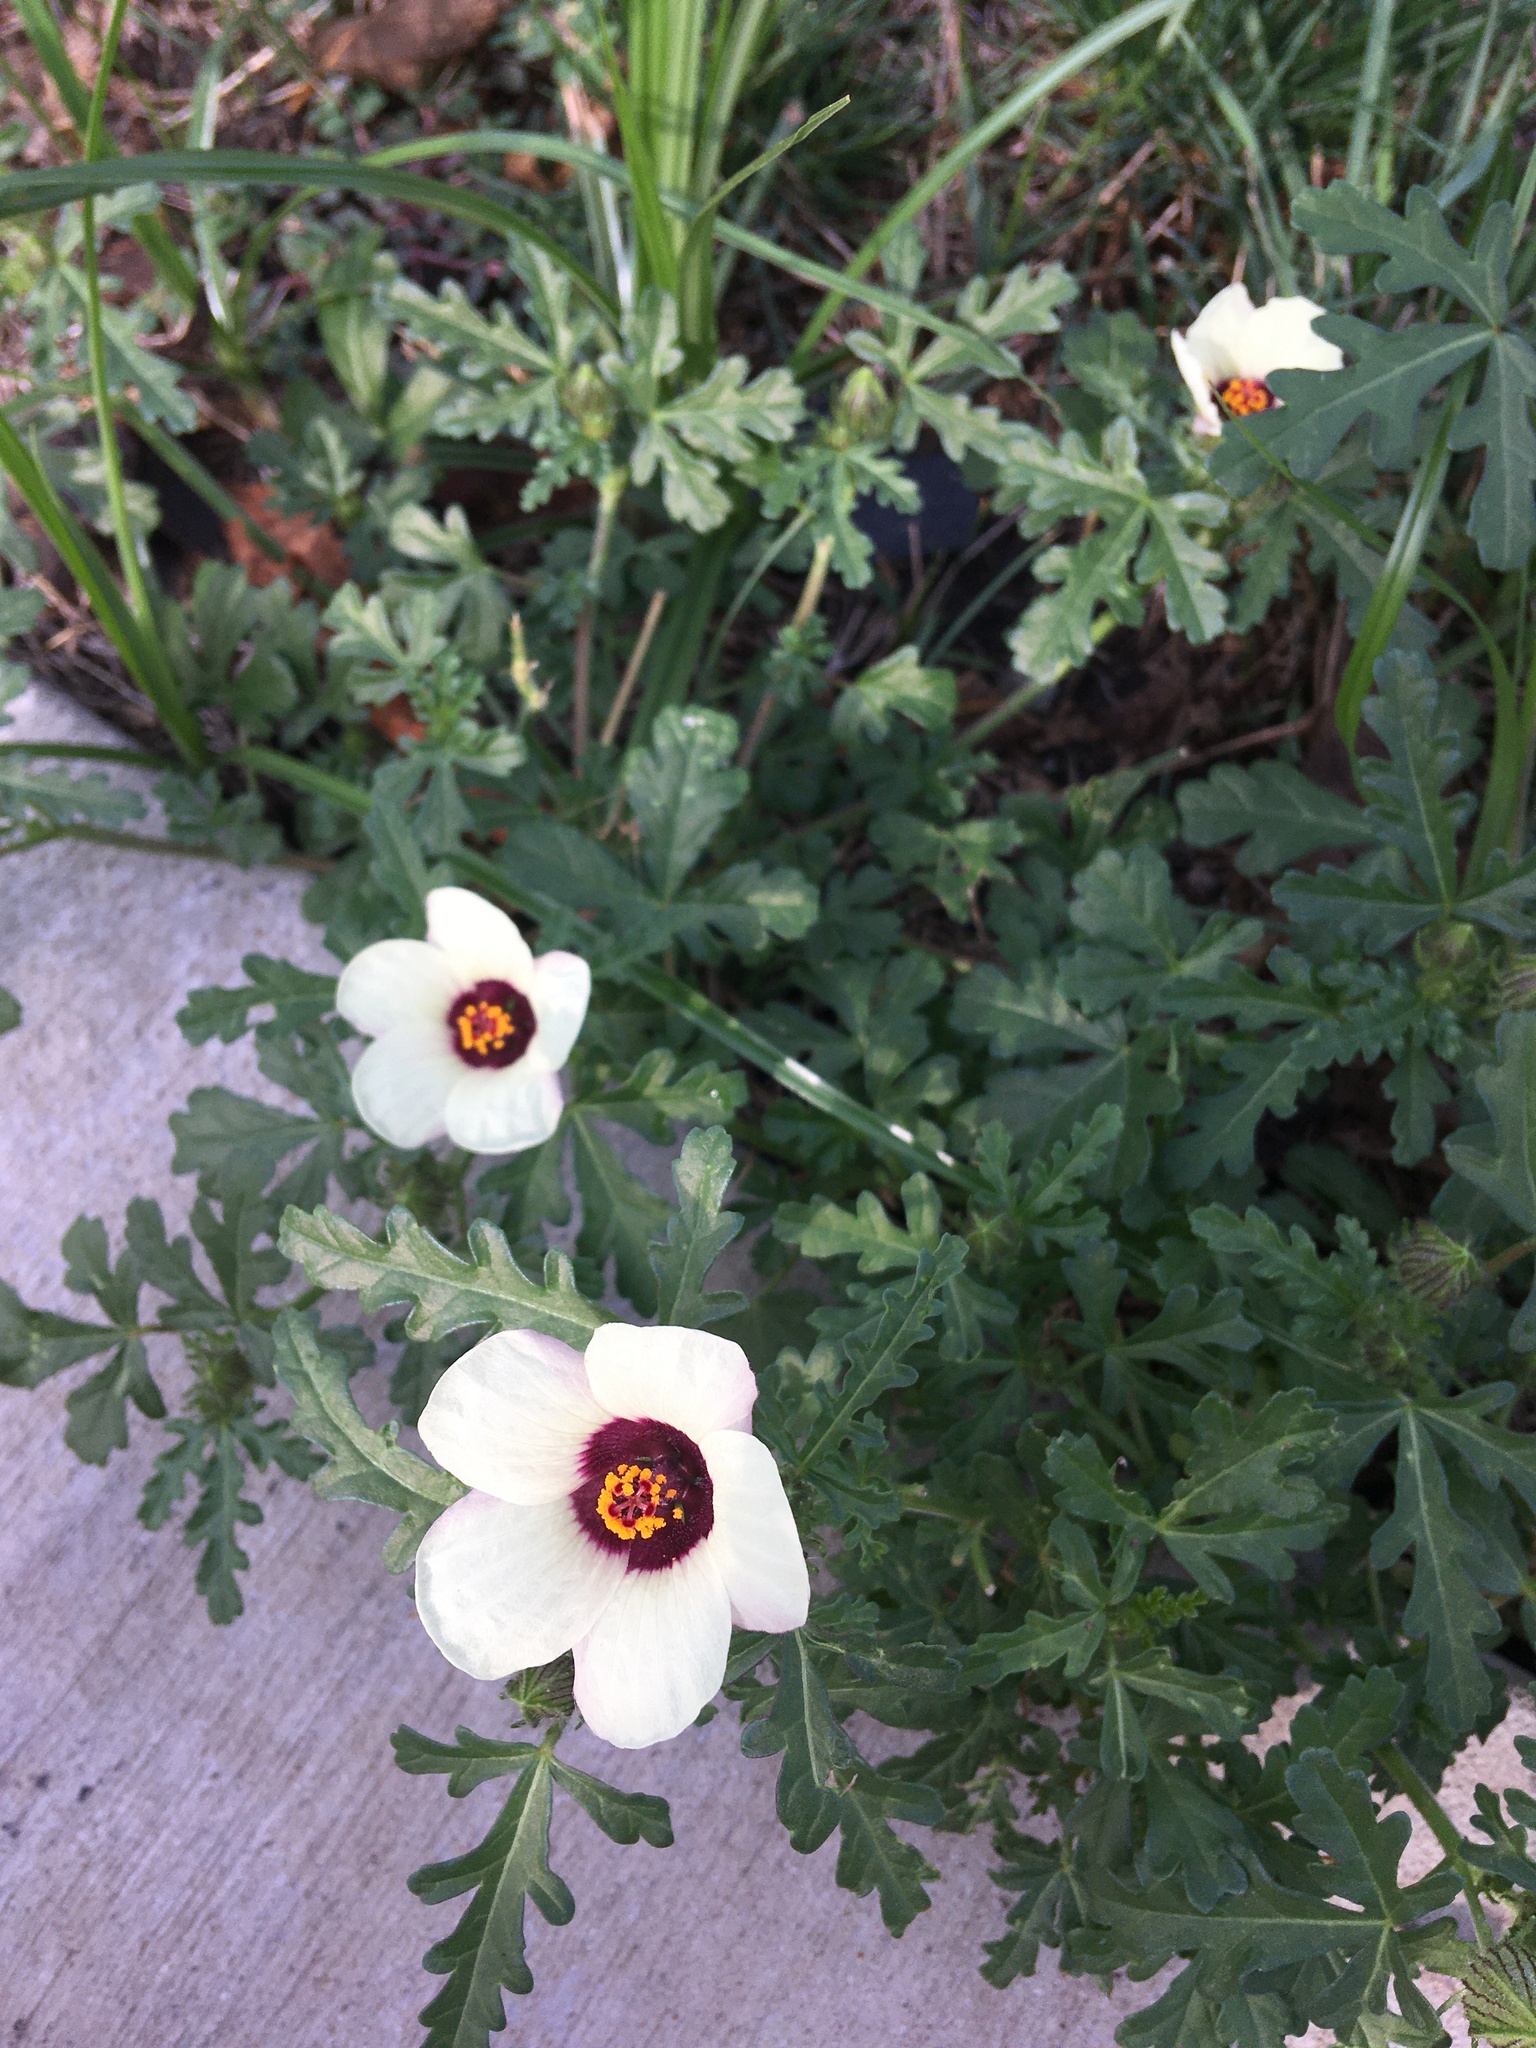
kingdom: Plantae
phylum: Tracheophyta
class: Magnoliopsida
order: Malvales
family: Malvaceae
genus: Hibiscus
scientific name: Hibiscus trionum
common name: Bladder ketmia
